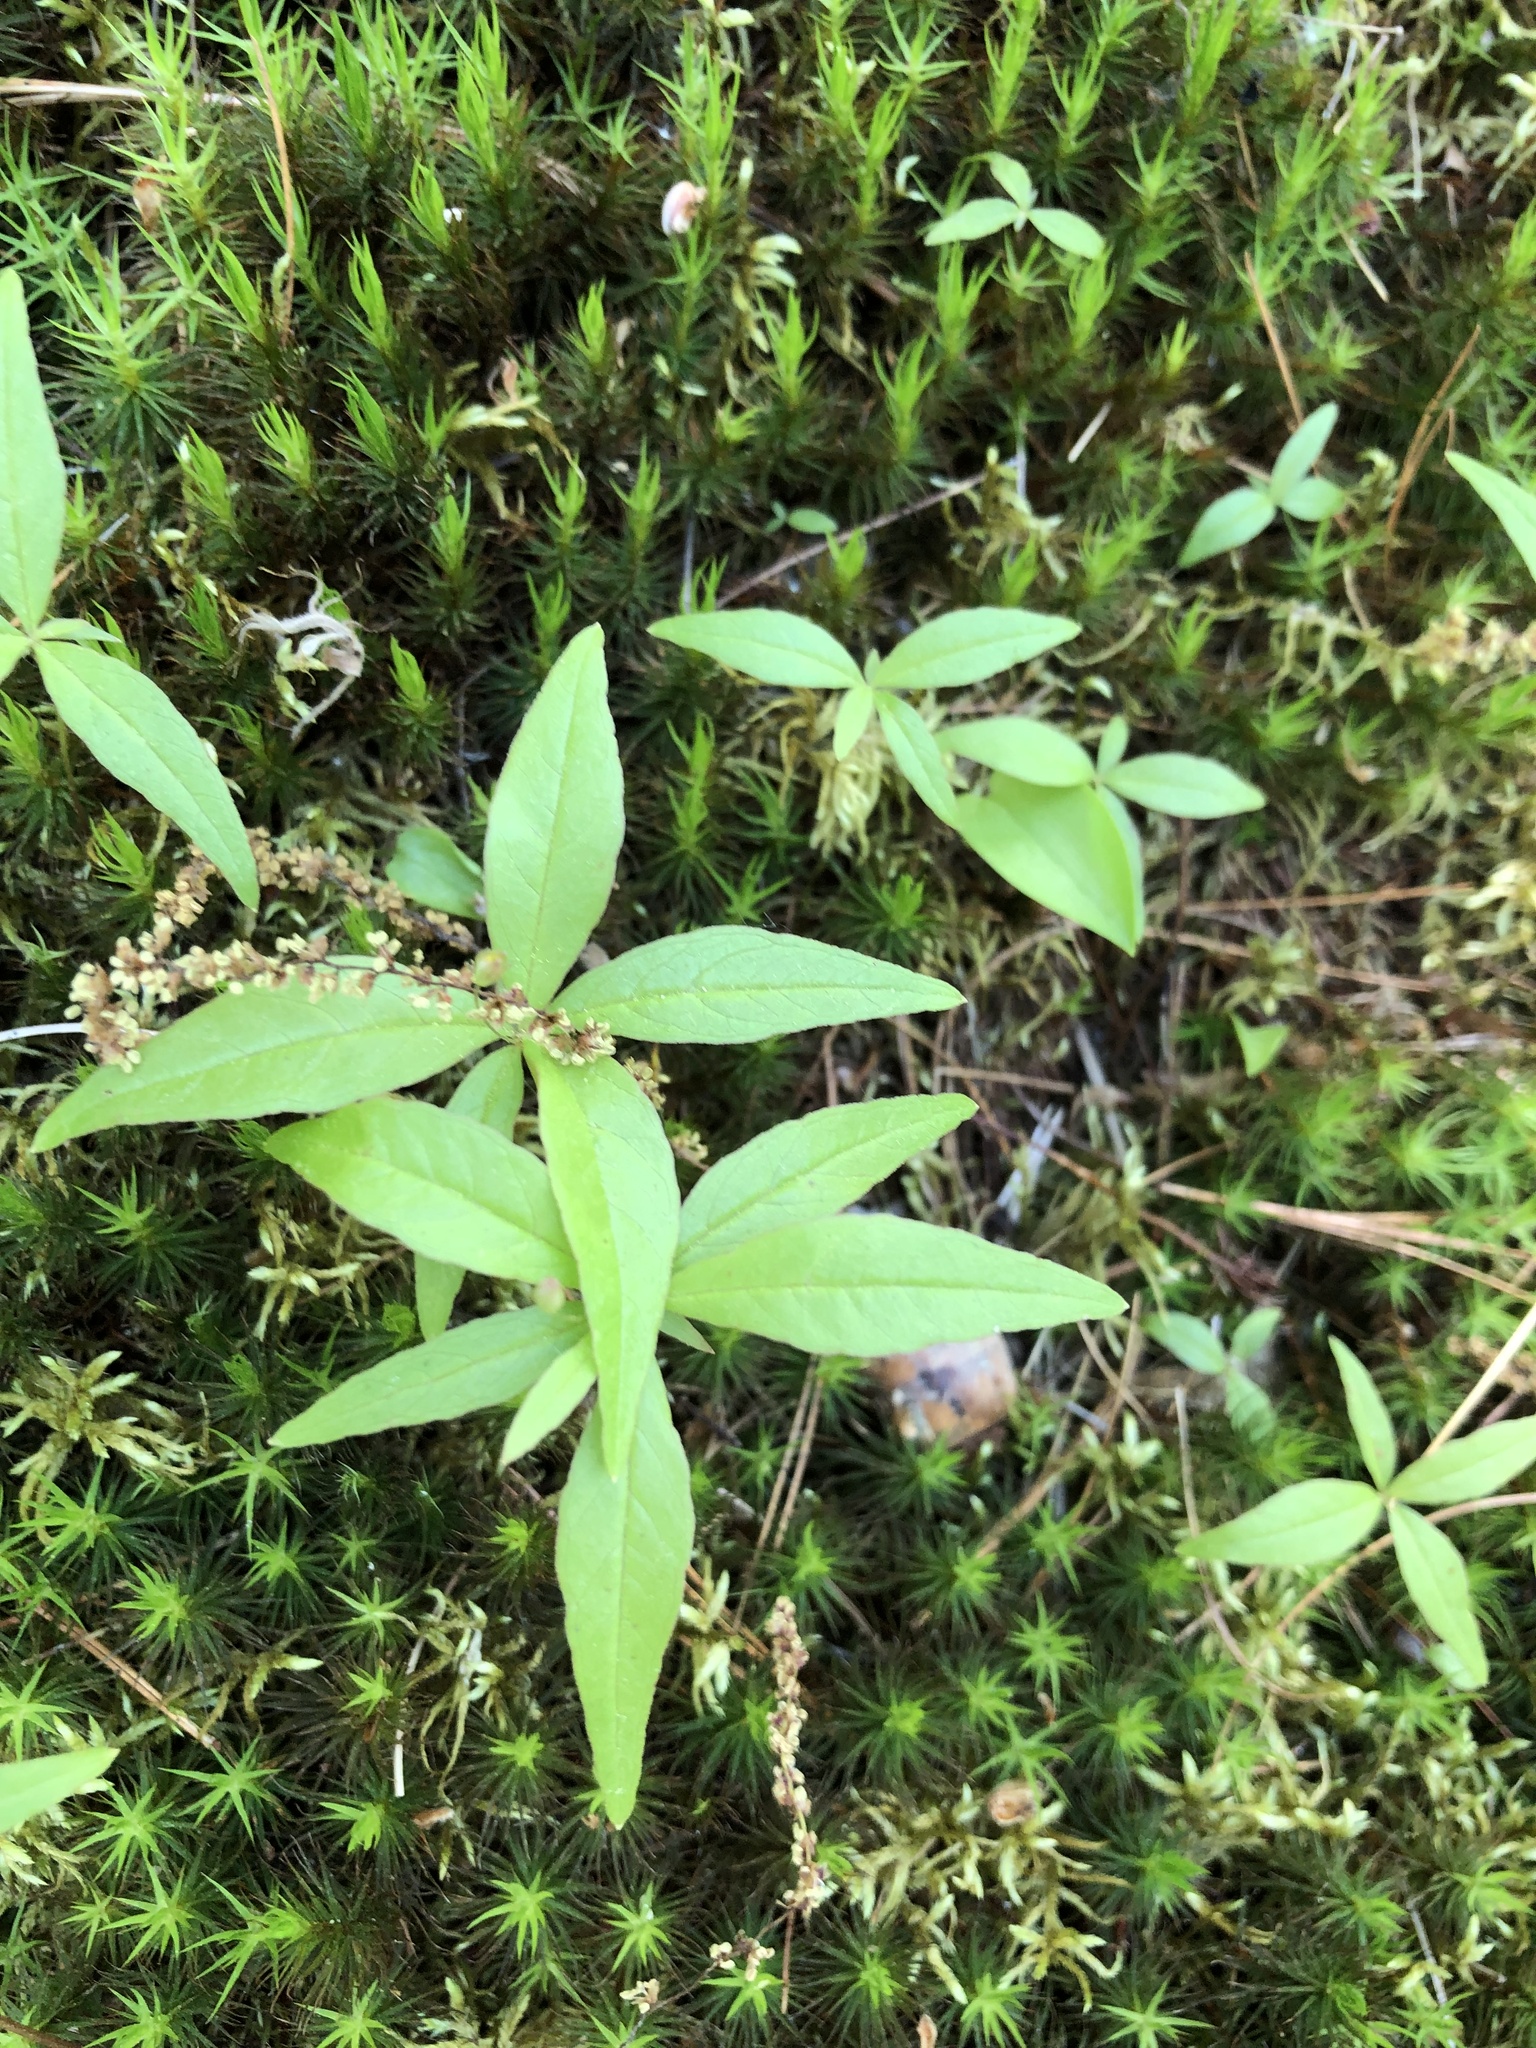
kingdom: Plantae
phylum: Tracheophyta
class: Magnoliopsida
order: Ericales
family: Primulaceae
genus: Lysimachia
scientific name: Lysimachia borealis
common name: American starflower
